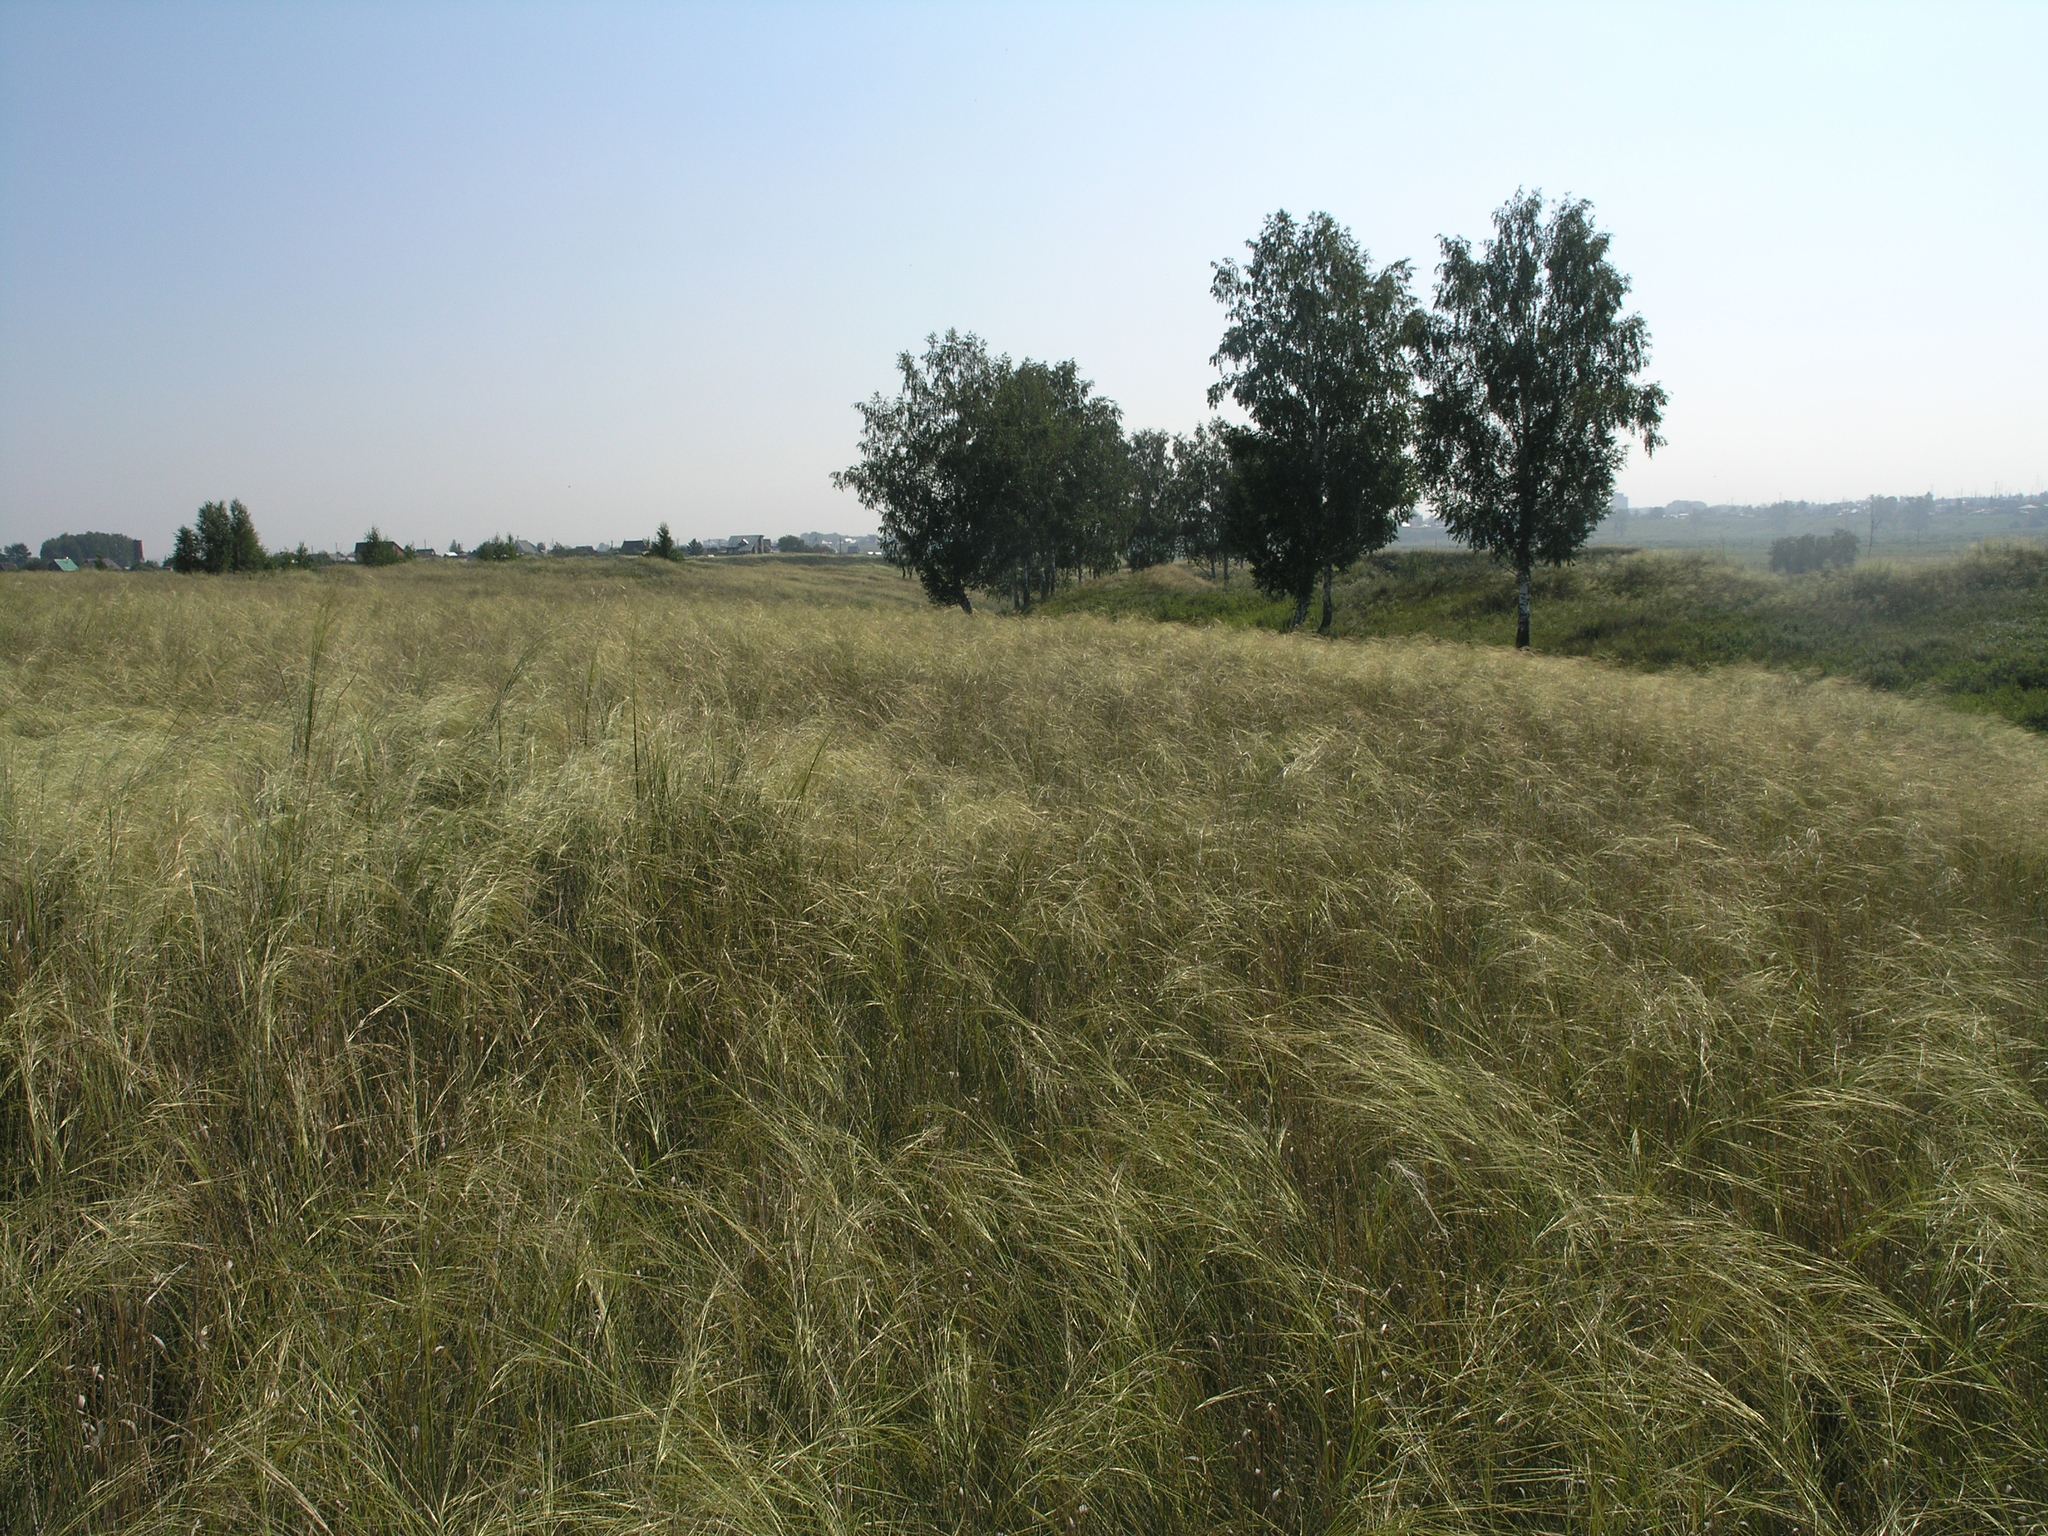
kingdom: Plantae
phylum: Tracheophyta
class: Magnoliopsida
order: Fagales
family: Betulaceae
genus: Betula
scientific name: Betula pendula
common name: Silver birch
